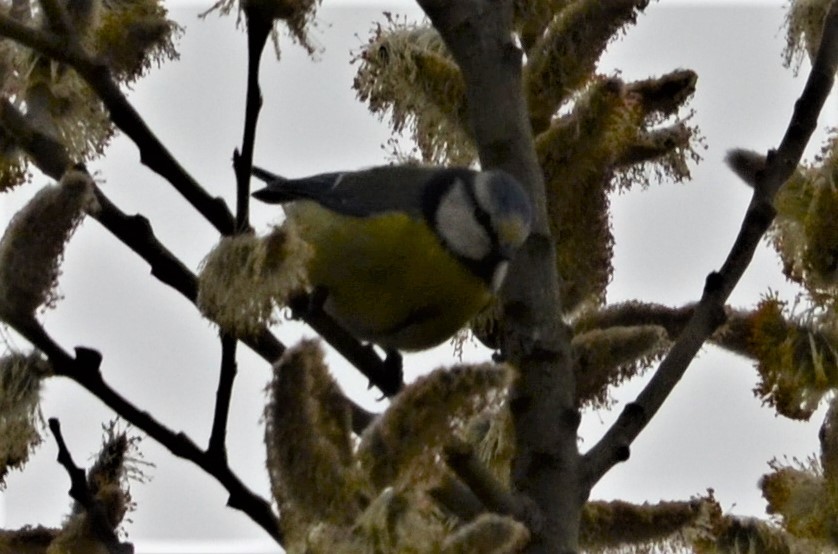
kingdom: Animalia
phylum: Chordata
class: Aves
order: Passeriformes
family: Paridae
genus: Cyanistes
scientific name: Cyanistes caeruleus
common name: Eurasian blue tit
